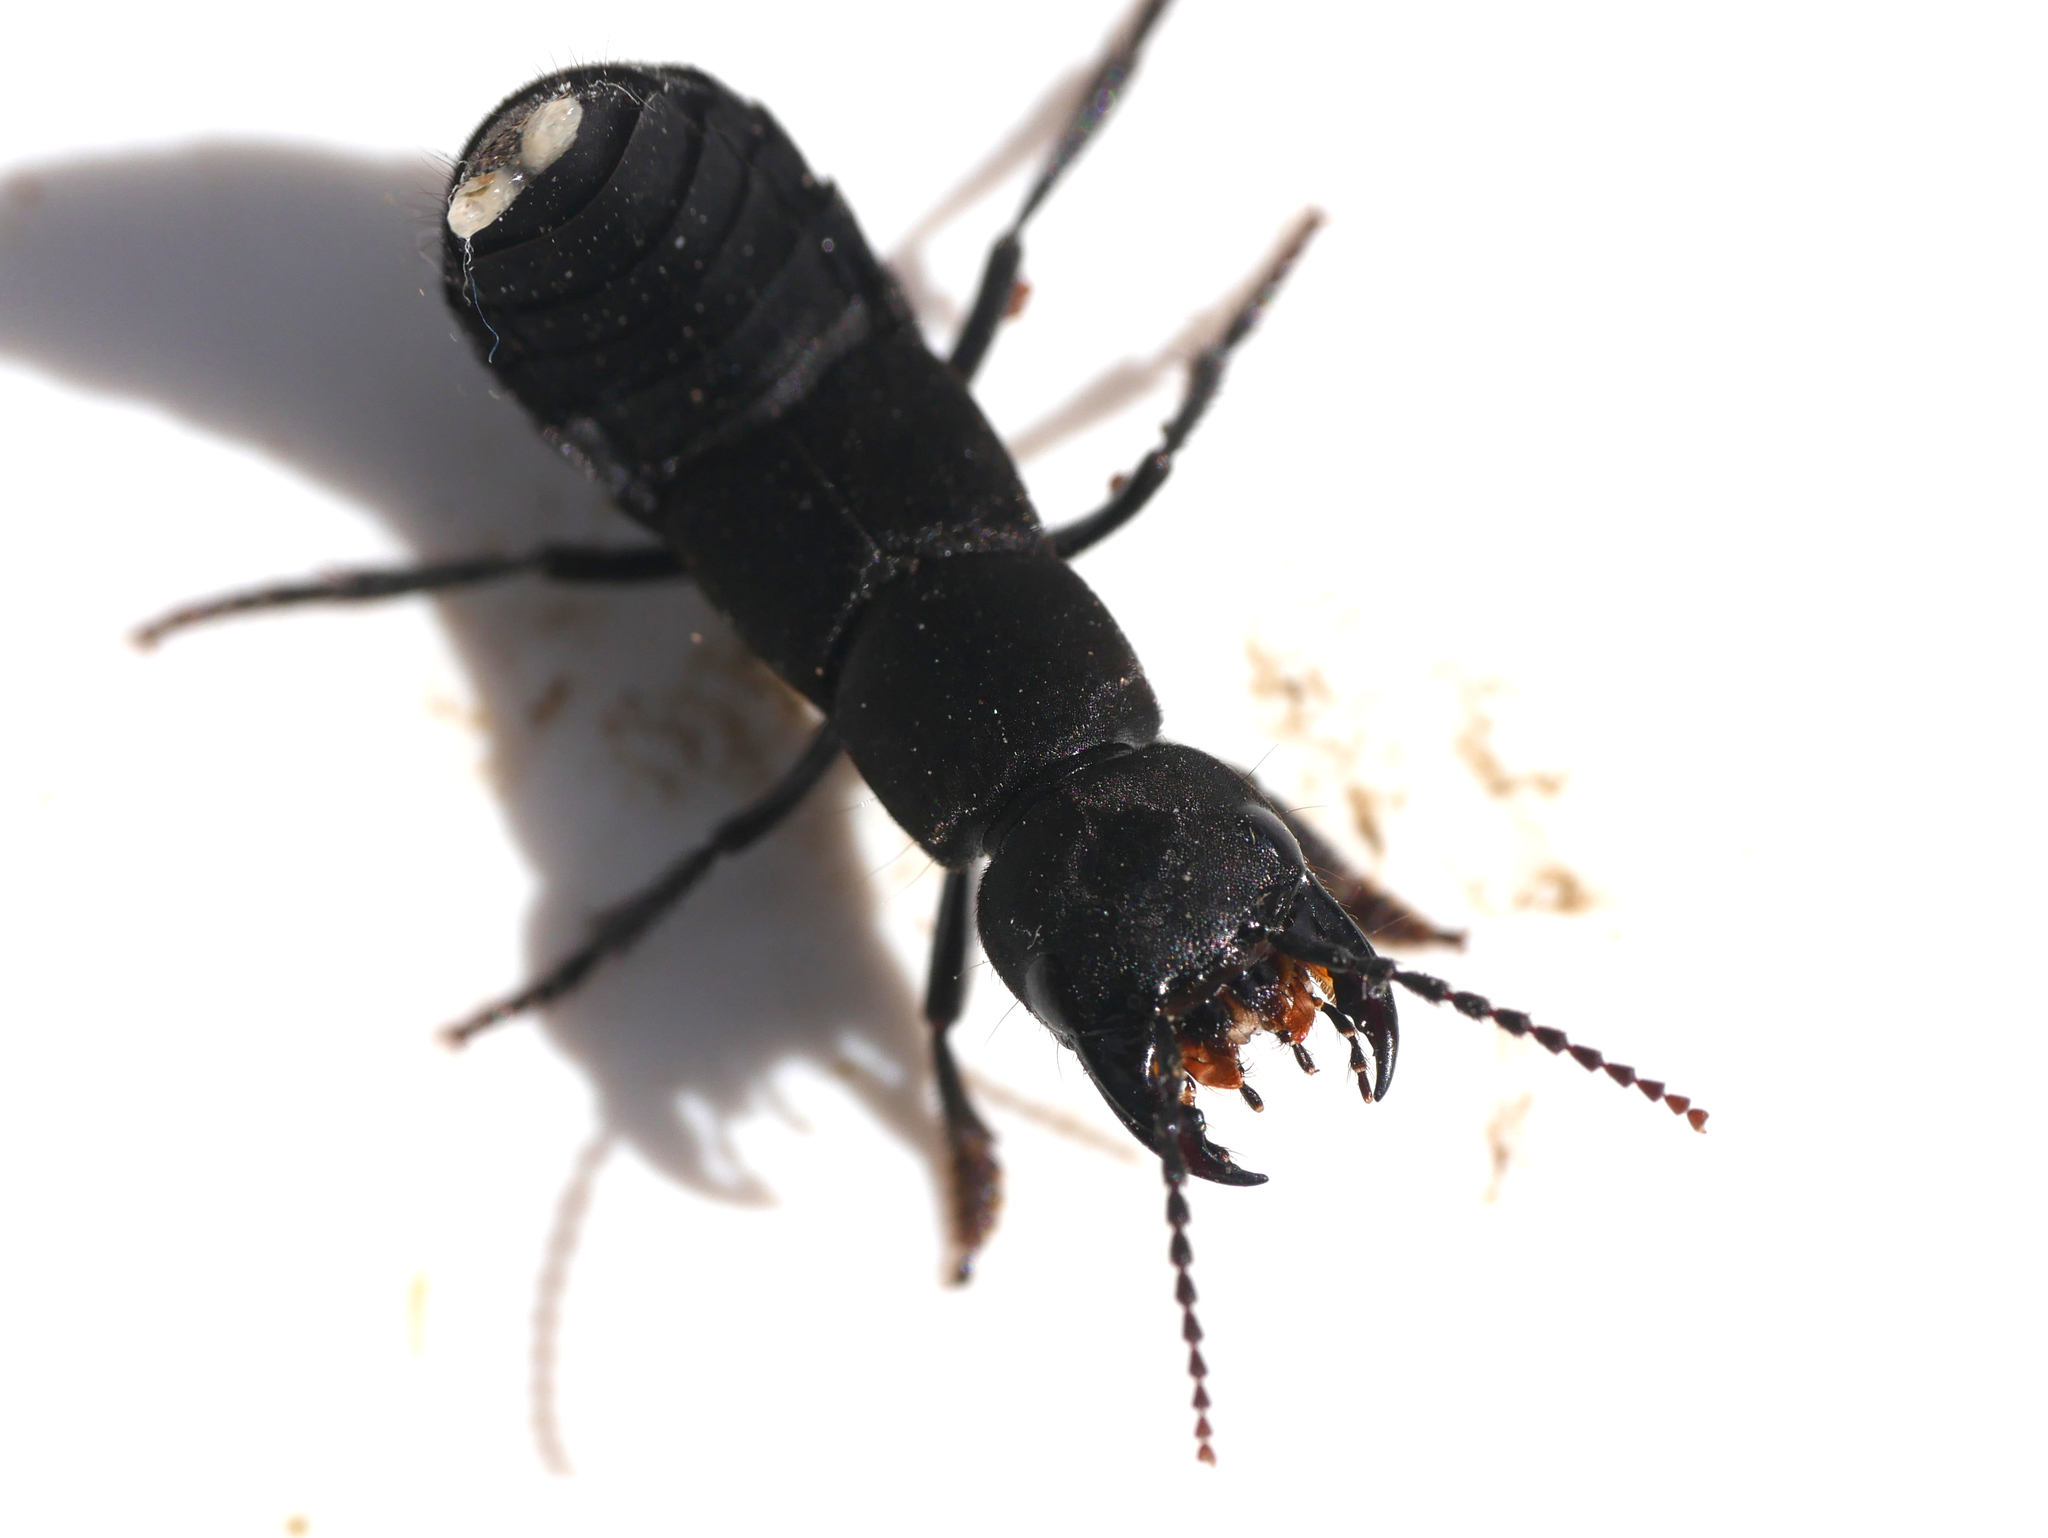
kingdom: Animalia
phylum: Arthropoda
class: Insecta
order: Coleoptera
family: Staphylinidae
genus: Ocypus
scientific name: Ocypus olens
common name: Devil's coach-horse
